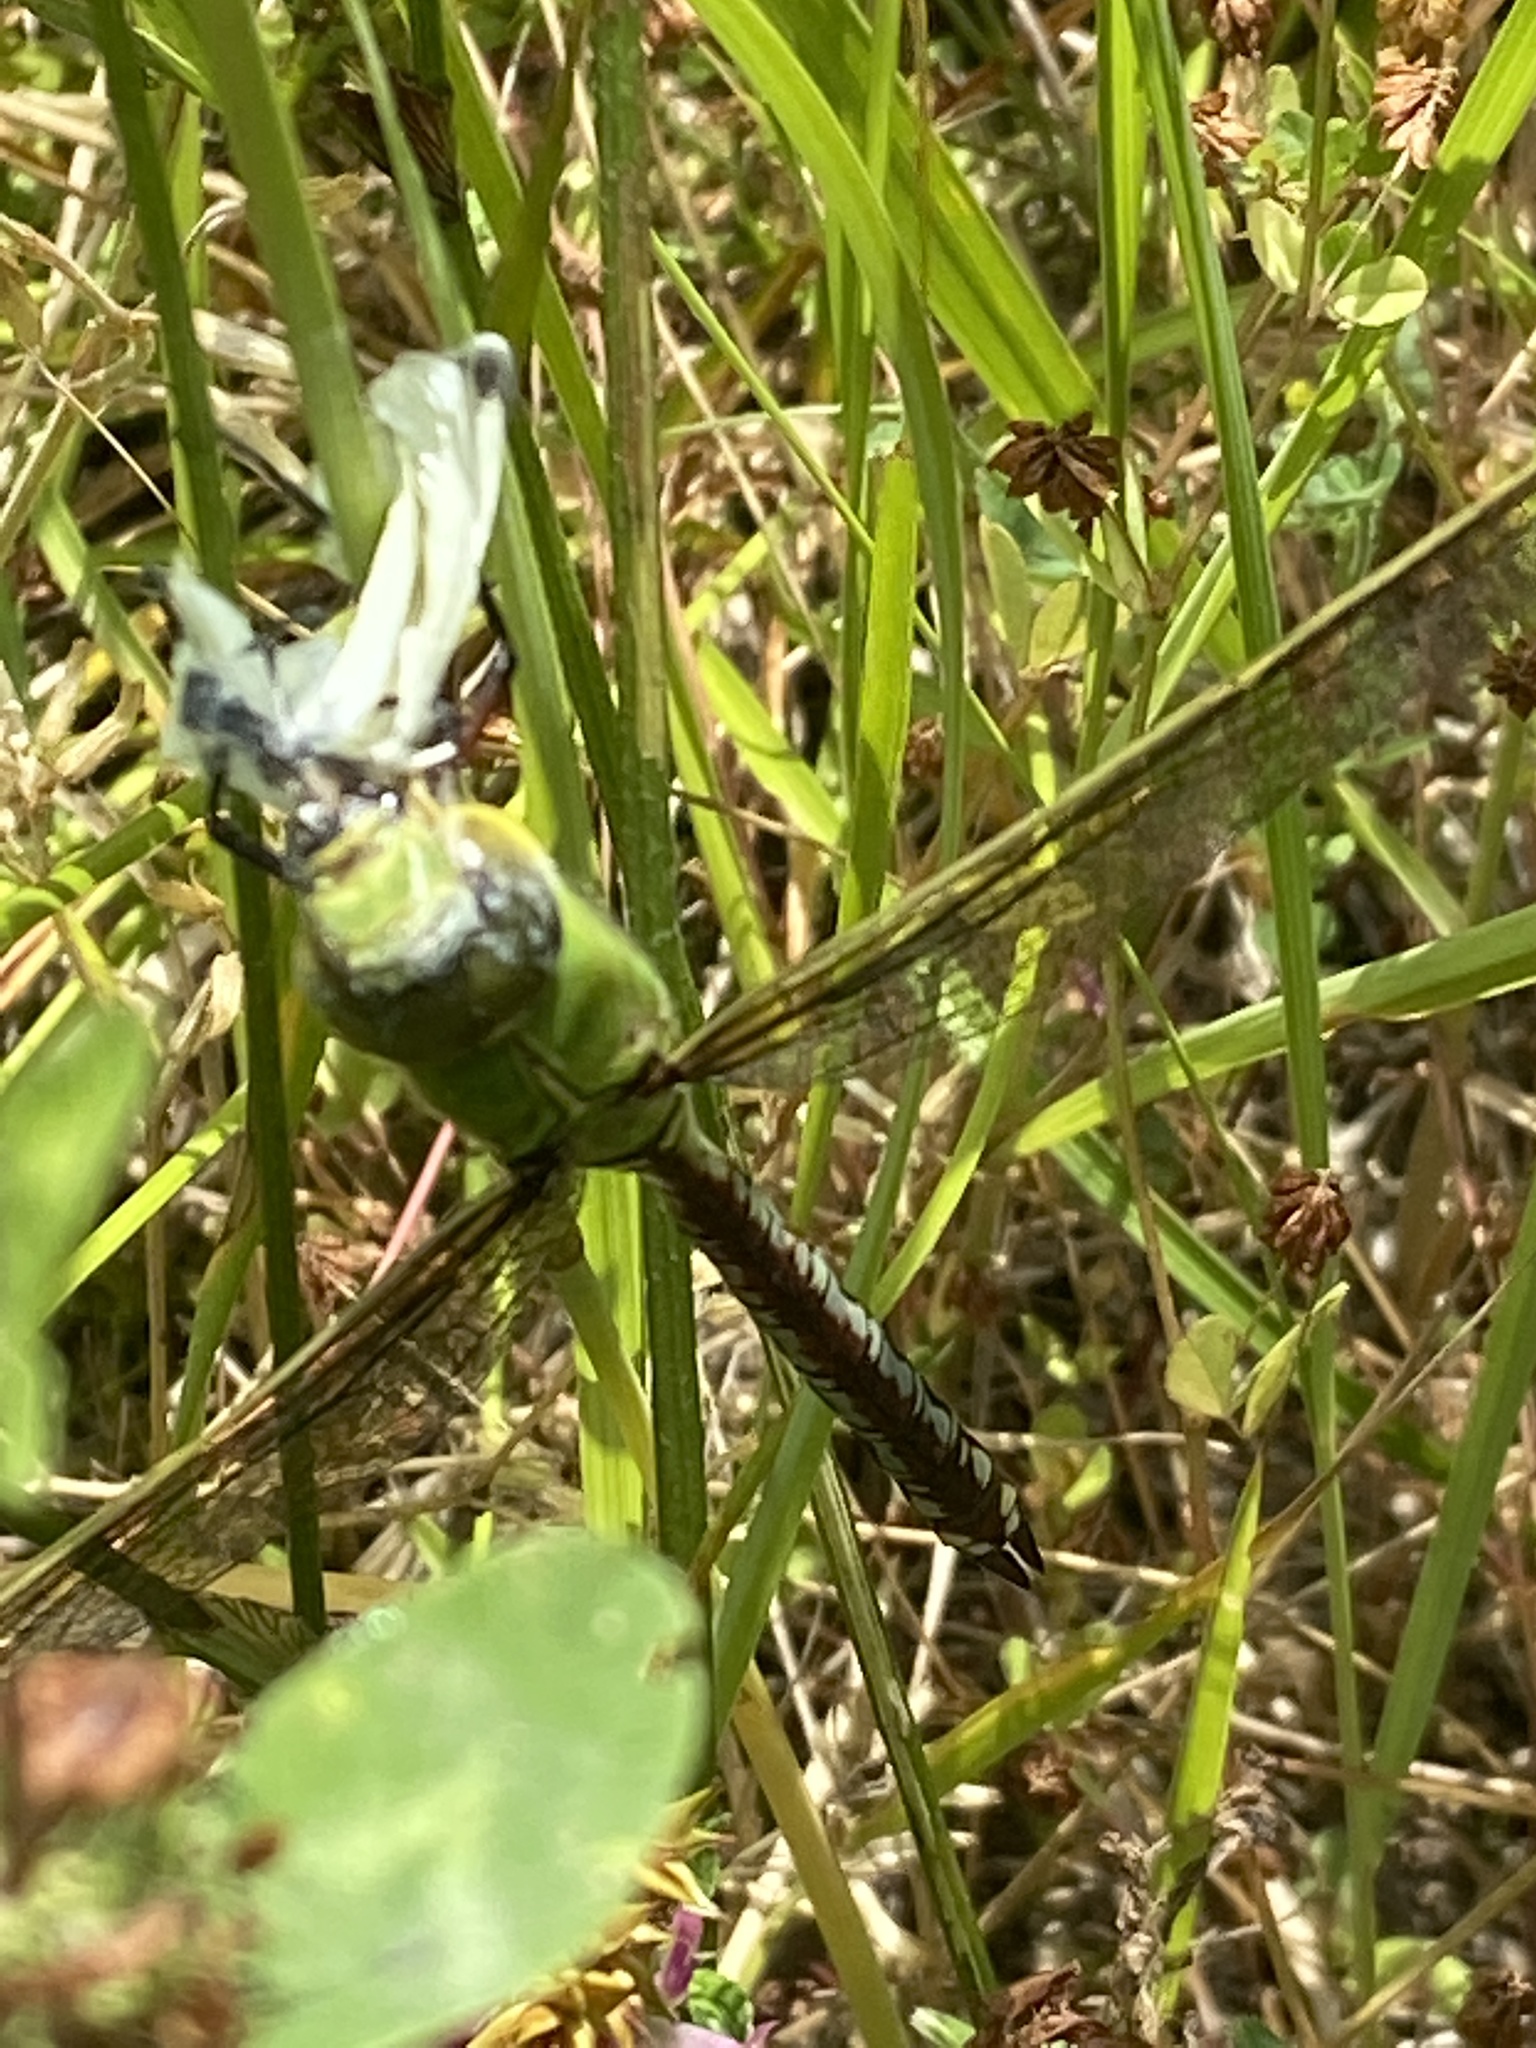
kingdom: Animalia
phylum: Arthropoda
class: Insecta
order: Odonata
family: Aeshnidae
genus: Anax
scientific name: Anax imperator
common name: Emperor dragonfly
